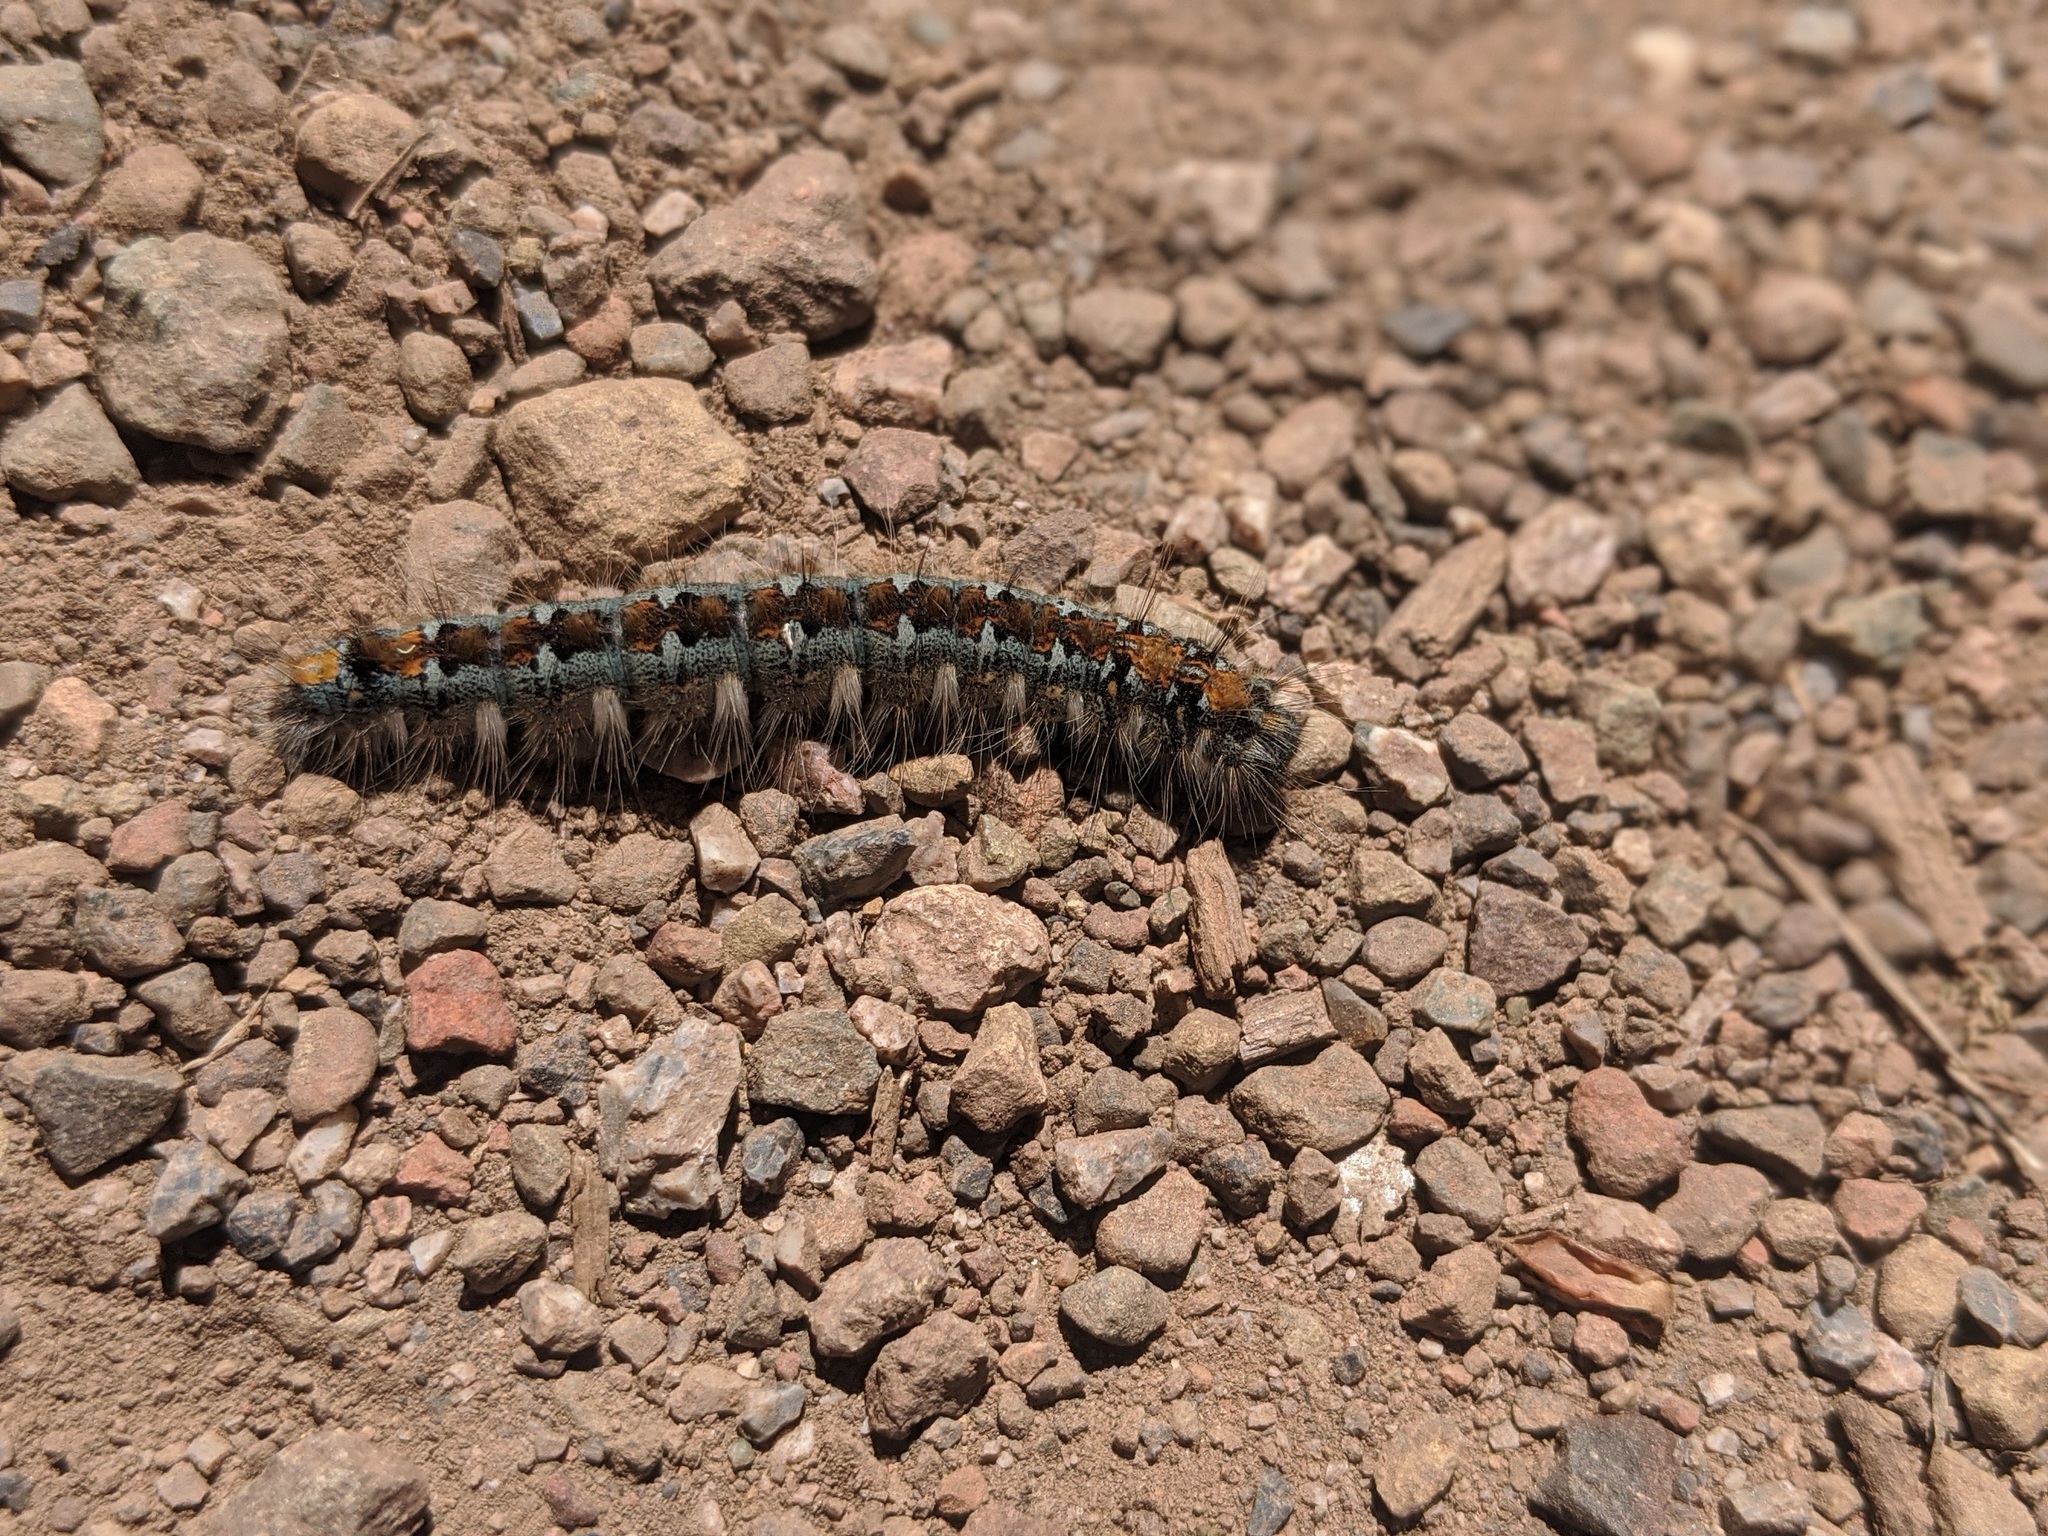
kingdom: Animalia
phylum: Arthropoda
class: Insecta
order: Lepidoptera
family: Lasiocampidae
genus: Malacosoma
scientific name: Malacosoma constricta
